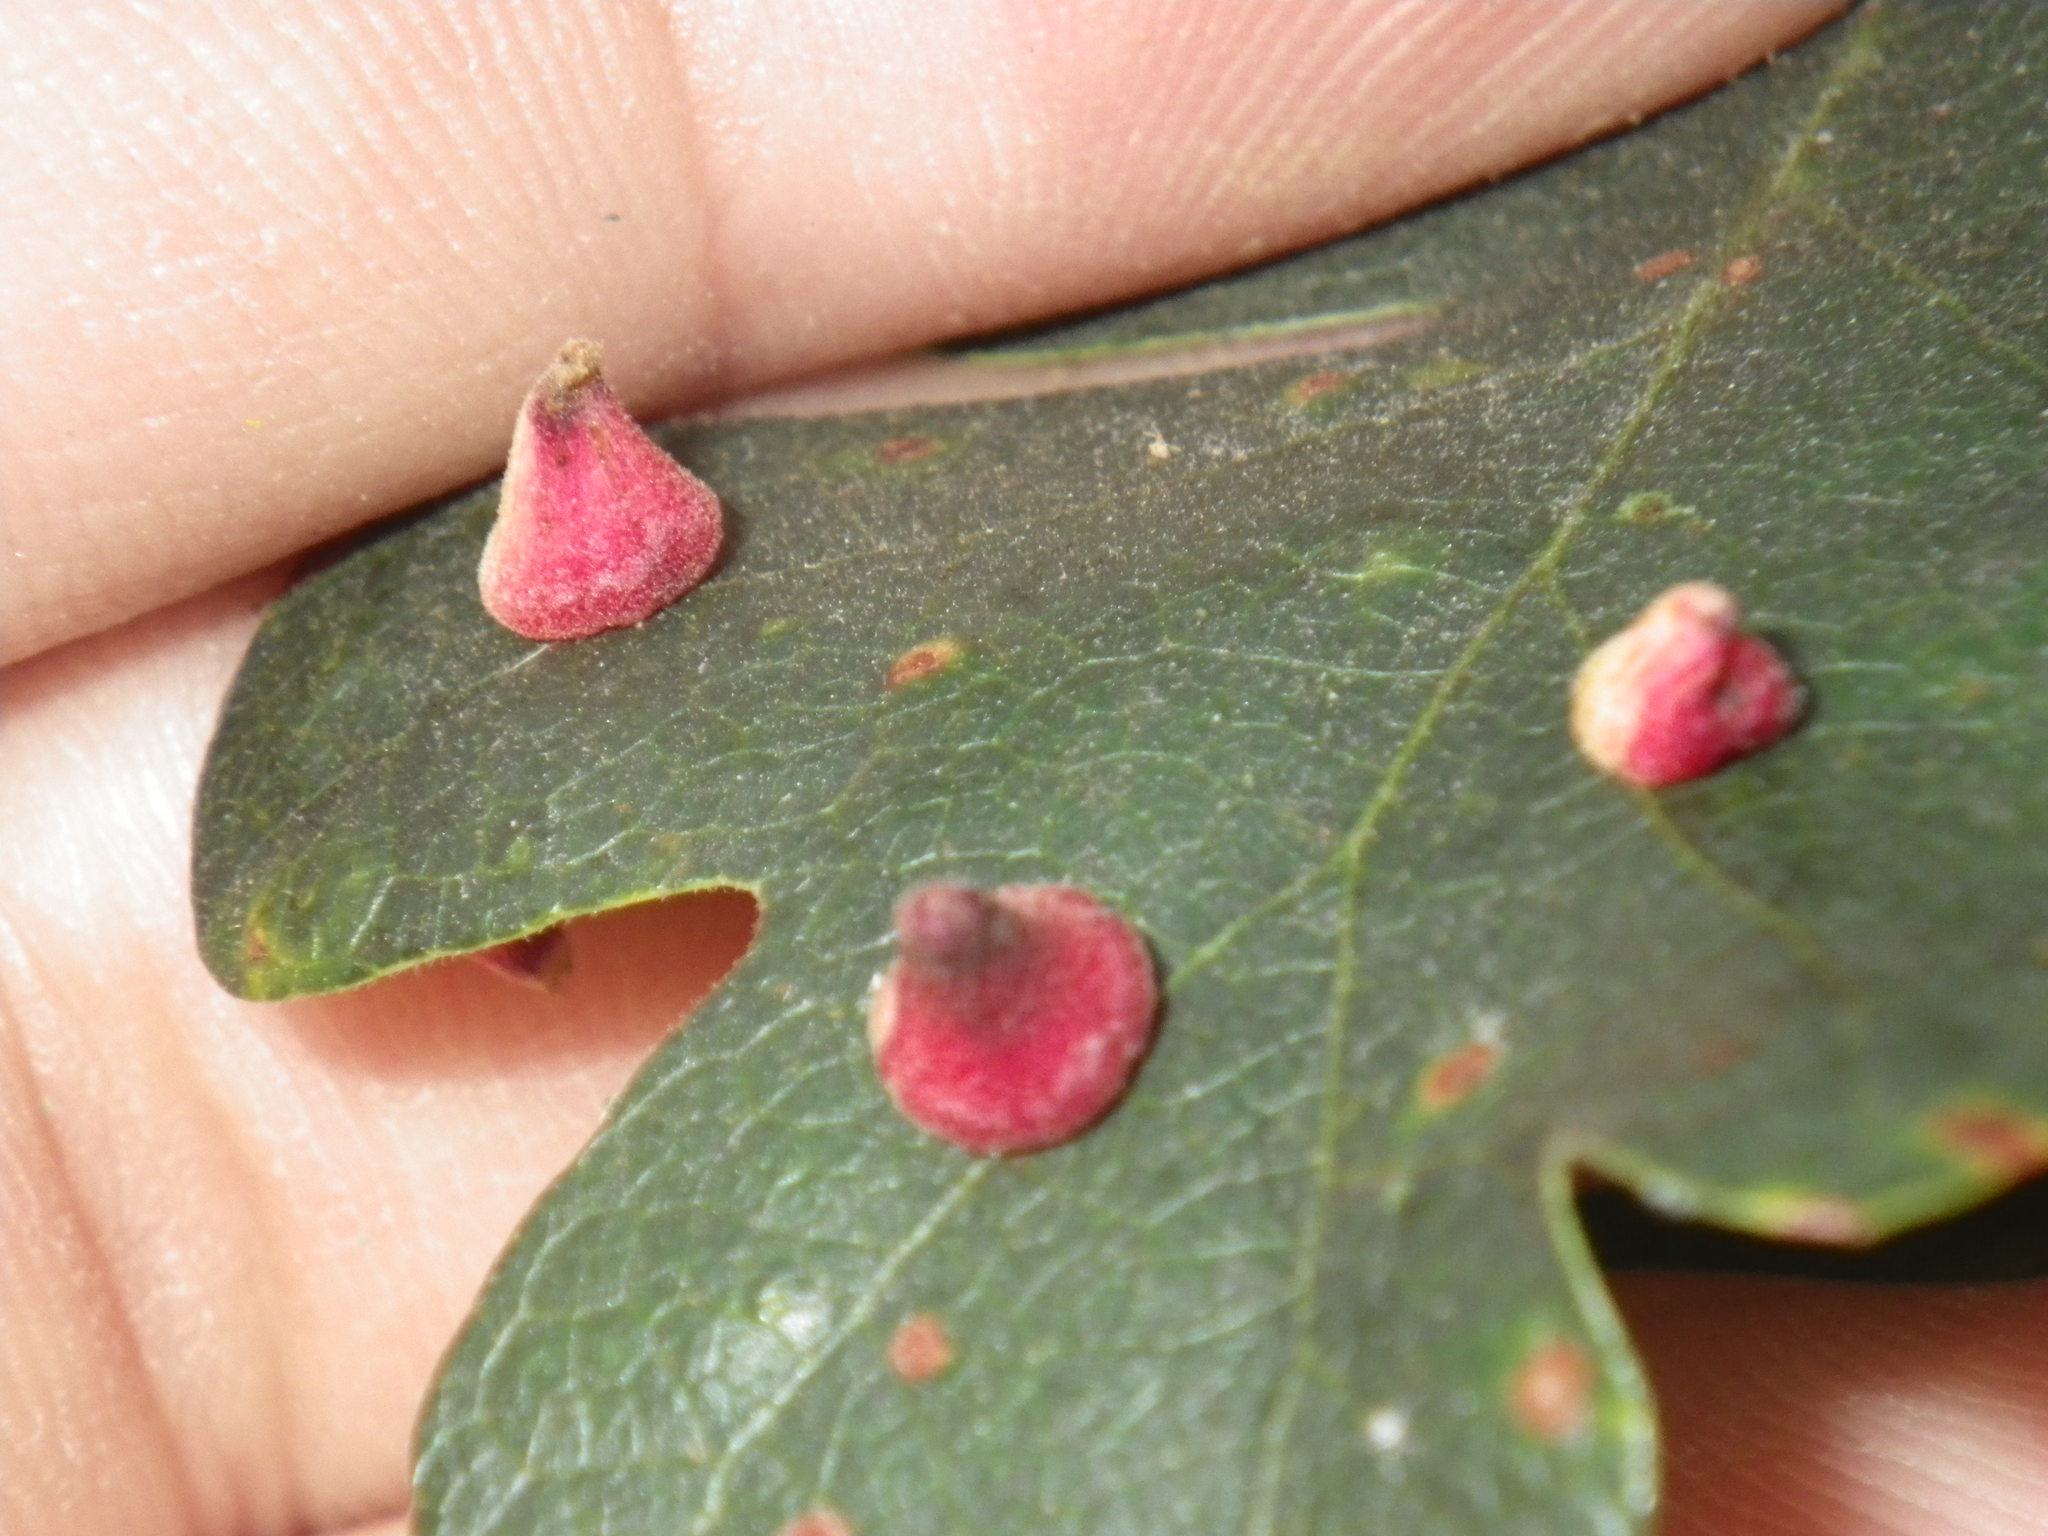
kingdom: Animalia
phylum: Arthropoda
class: Insecta
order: Hymenoptera
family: Cynipidae
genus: Andricus
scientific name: Andricus
